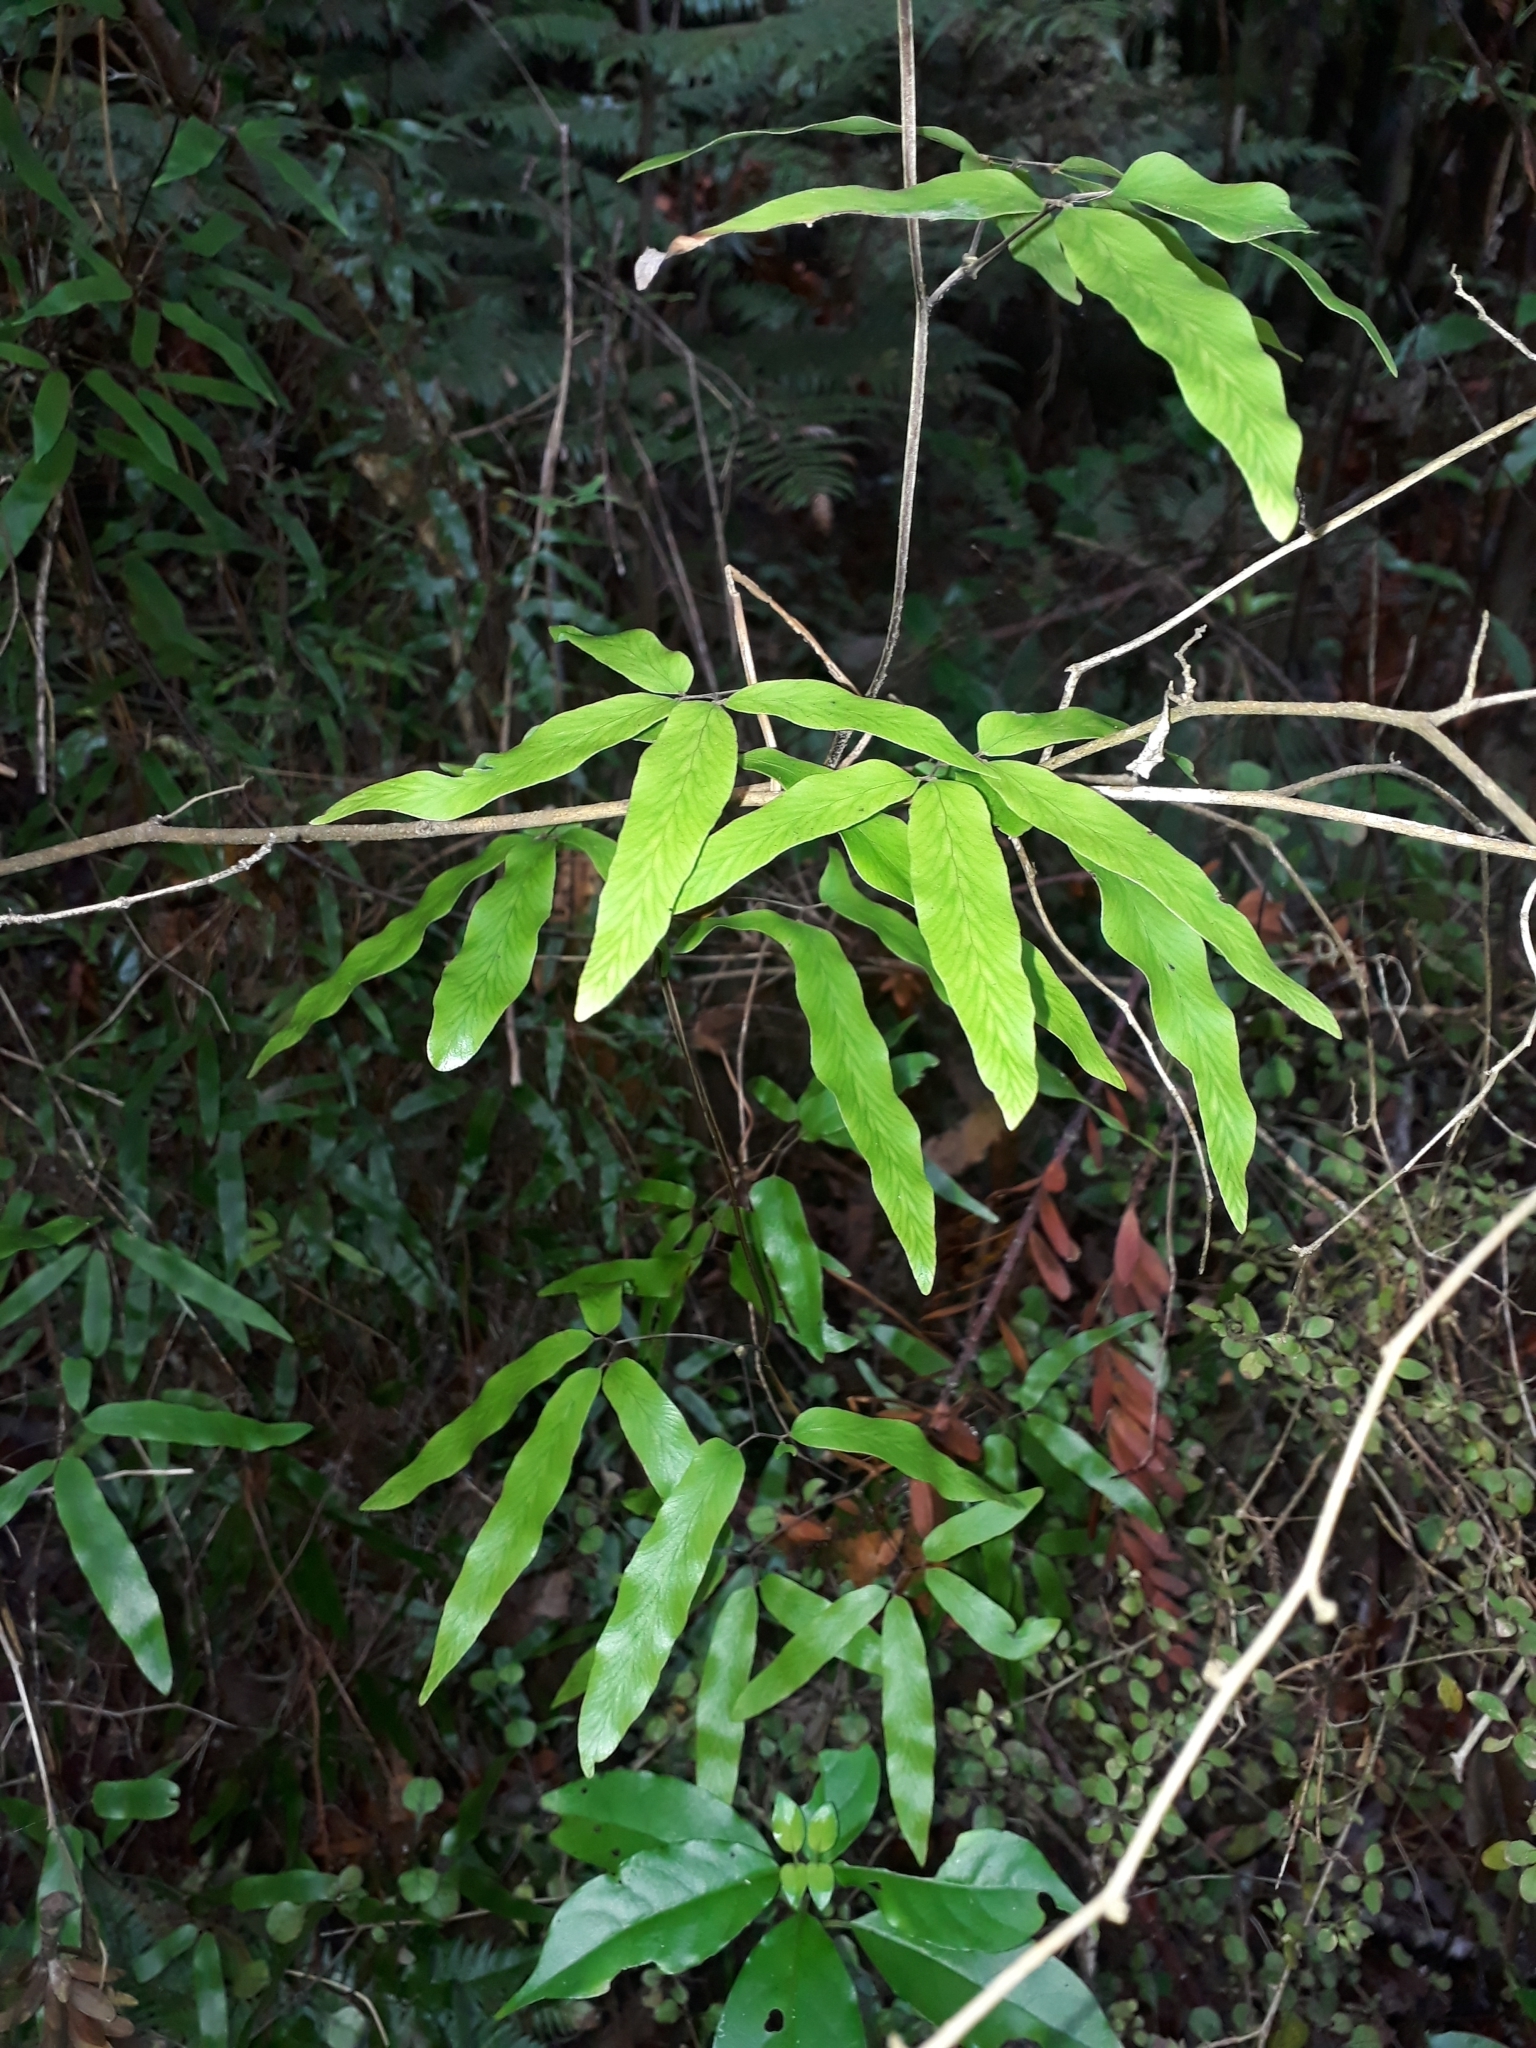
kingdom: Plantae
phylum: Tracheophyta
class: Polypodiopsida
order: Schizaeales
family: Lygodiaceae
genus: Lygodium
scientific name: Lygodium articulatum
